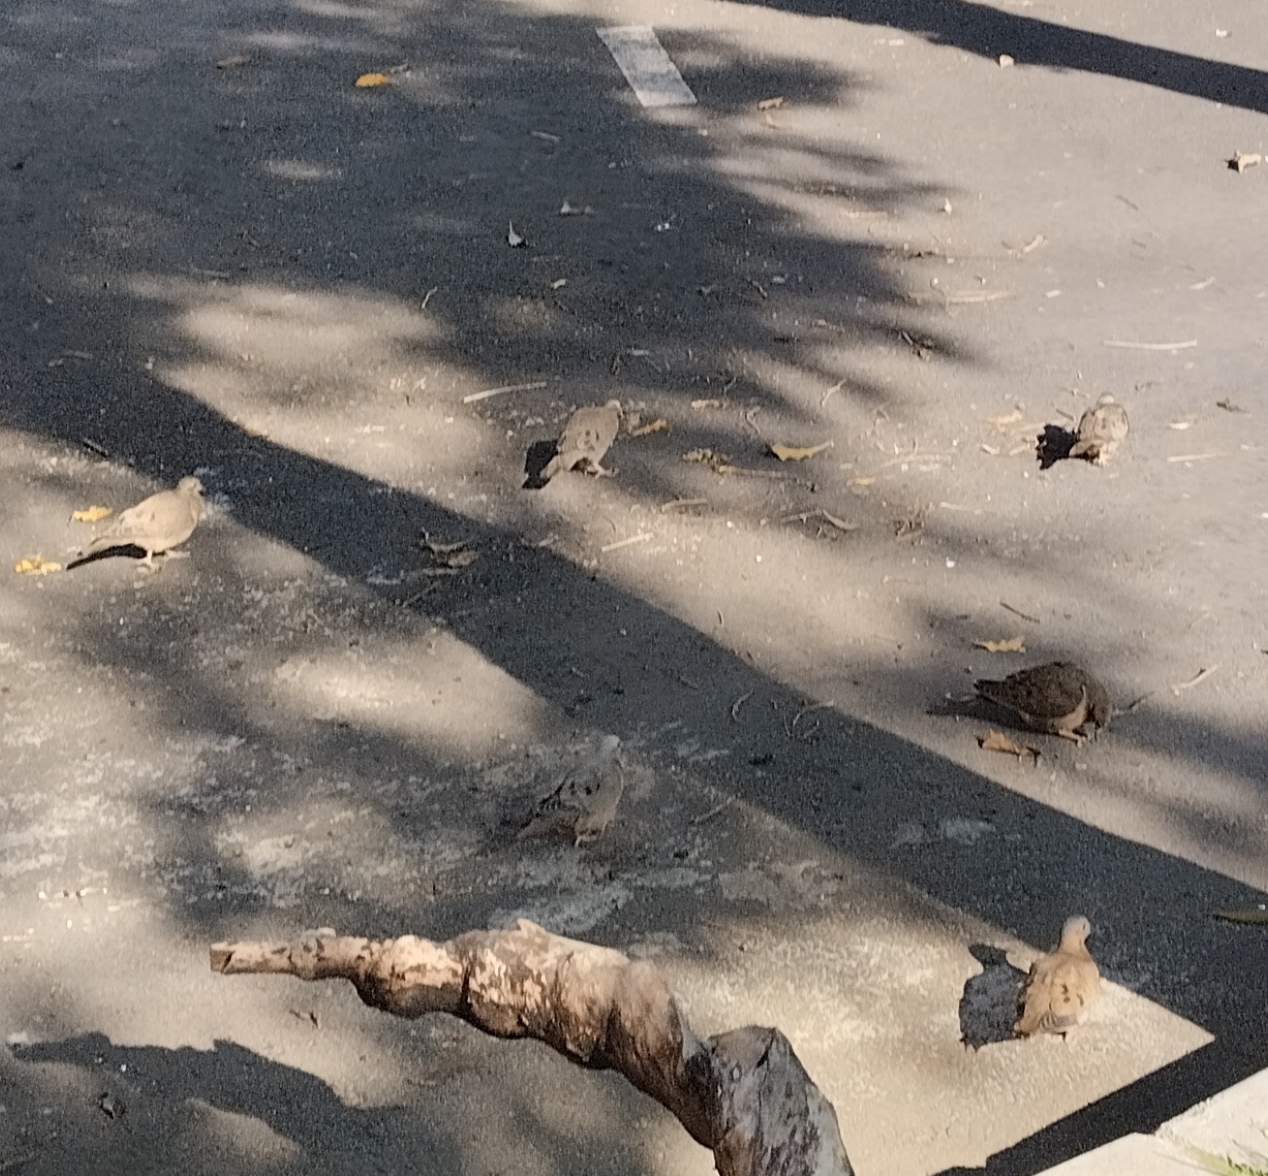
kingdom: Animalia
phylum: Chordata
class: Aves
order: Columbiformes
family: Columbidae
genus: Zenaida
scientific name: Zenaida auriculata
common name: Eared dove
